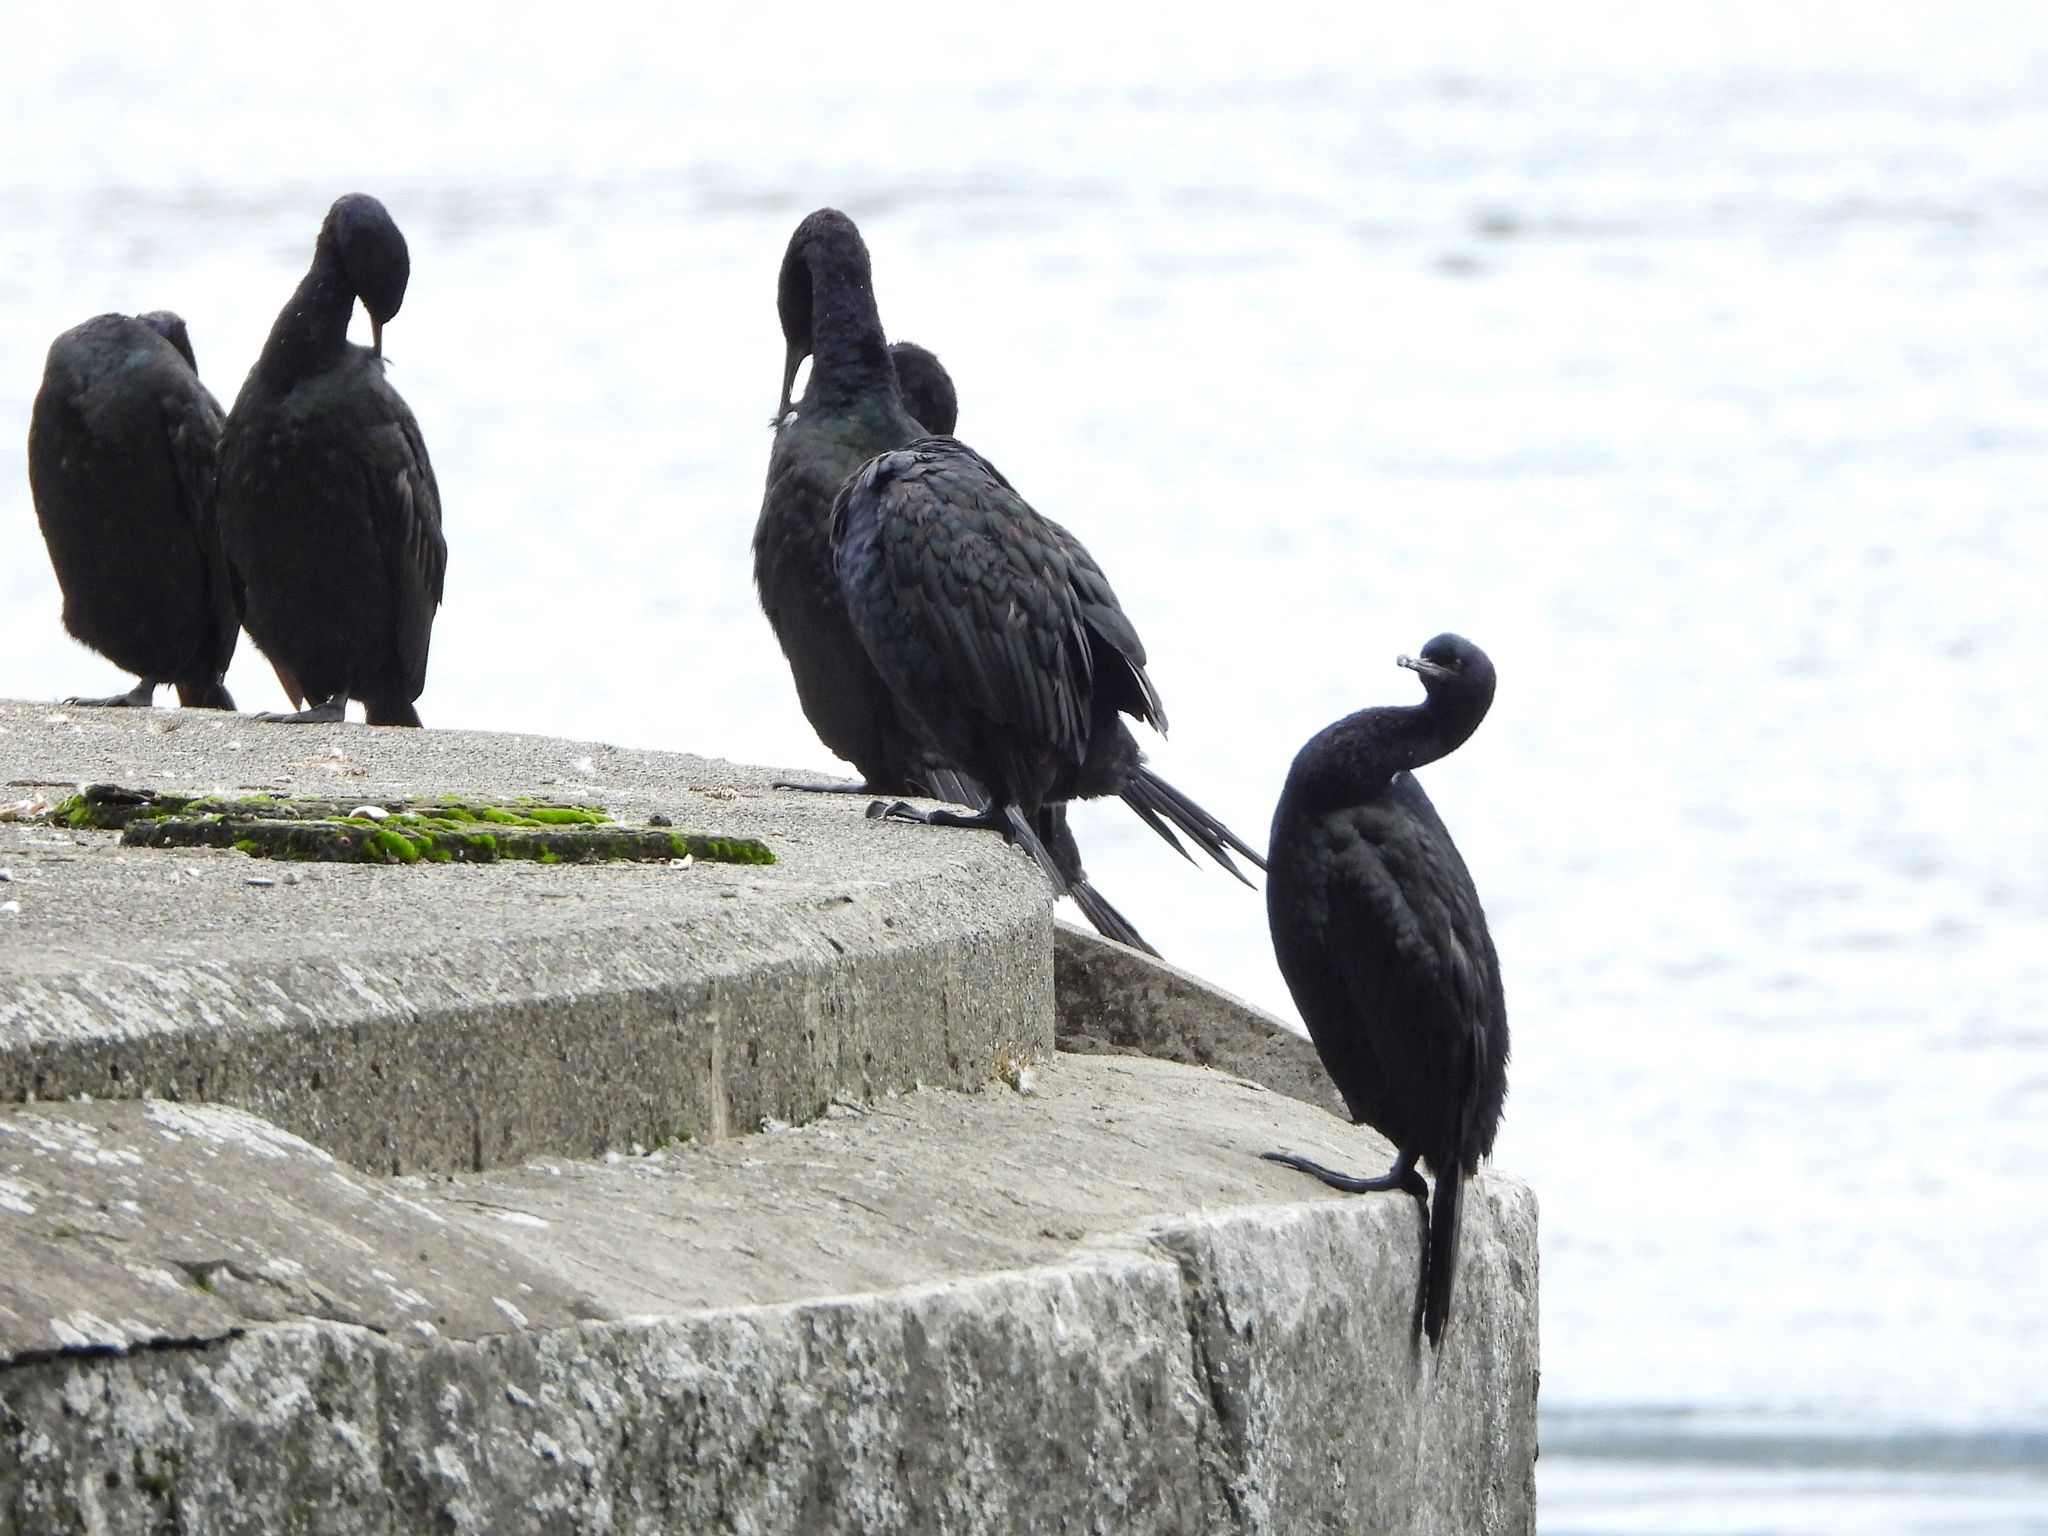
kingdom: Animalia
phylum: Chordata
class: Aves
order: Suliformes
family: Phalacrocoracidae
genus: Phalacrocorax
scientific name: Phalacrocorax pelagicus
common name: Pelagic cormorant
